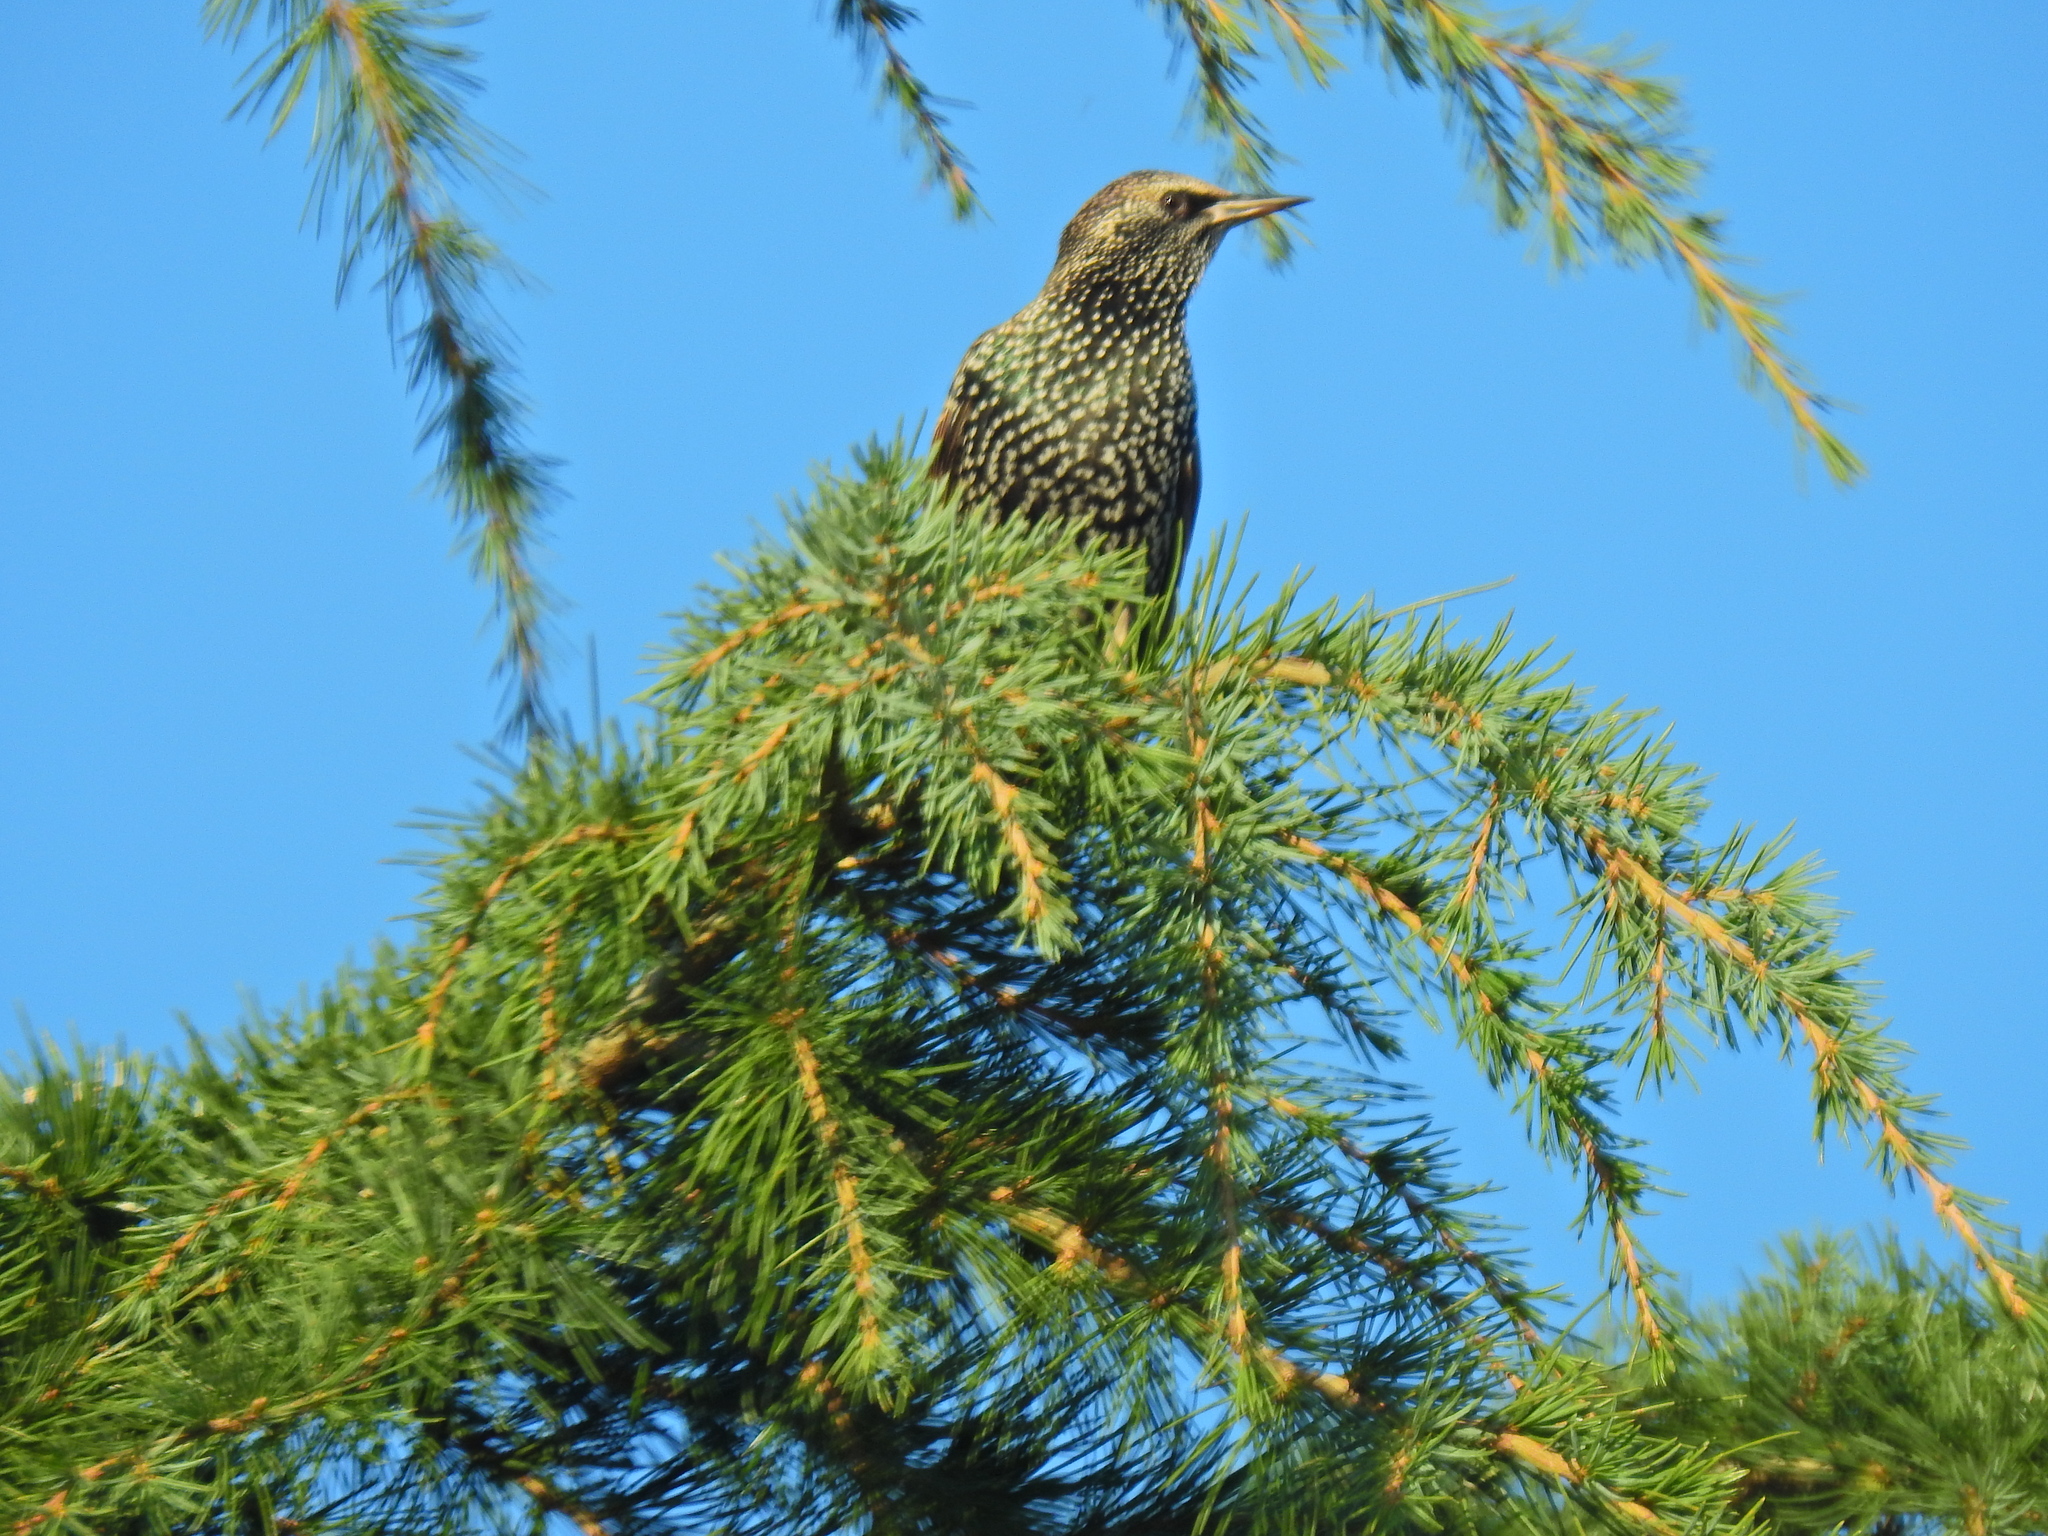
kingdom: Animalia
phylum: Chordata
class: Aves
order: Passeriformes
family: Sturnidae
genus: Sturnus
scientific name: Sturnus vulgaris
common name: Common starling
